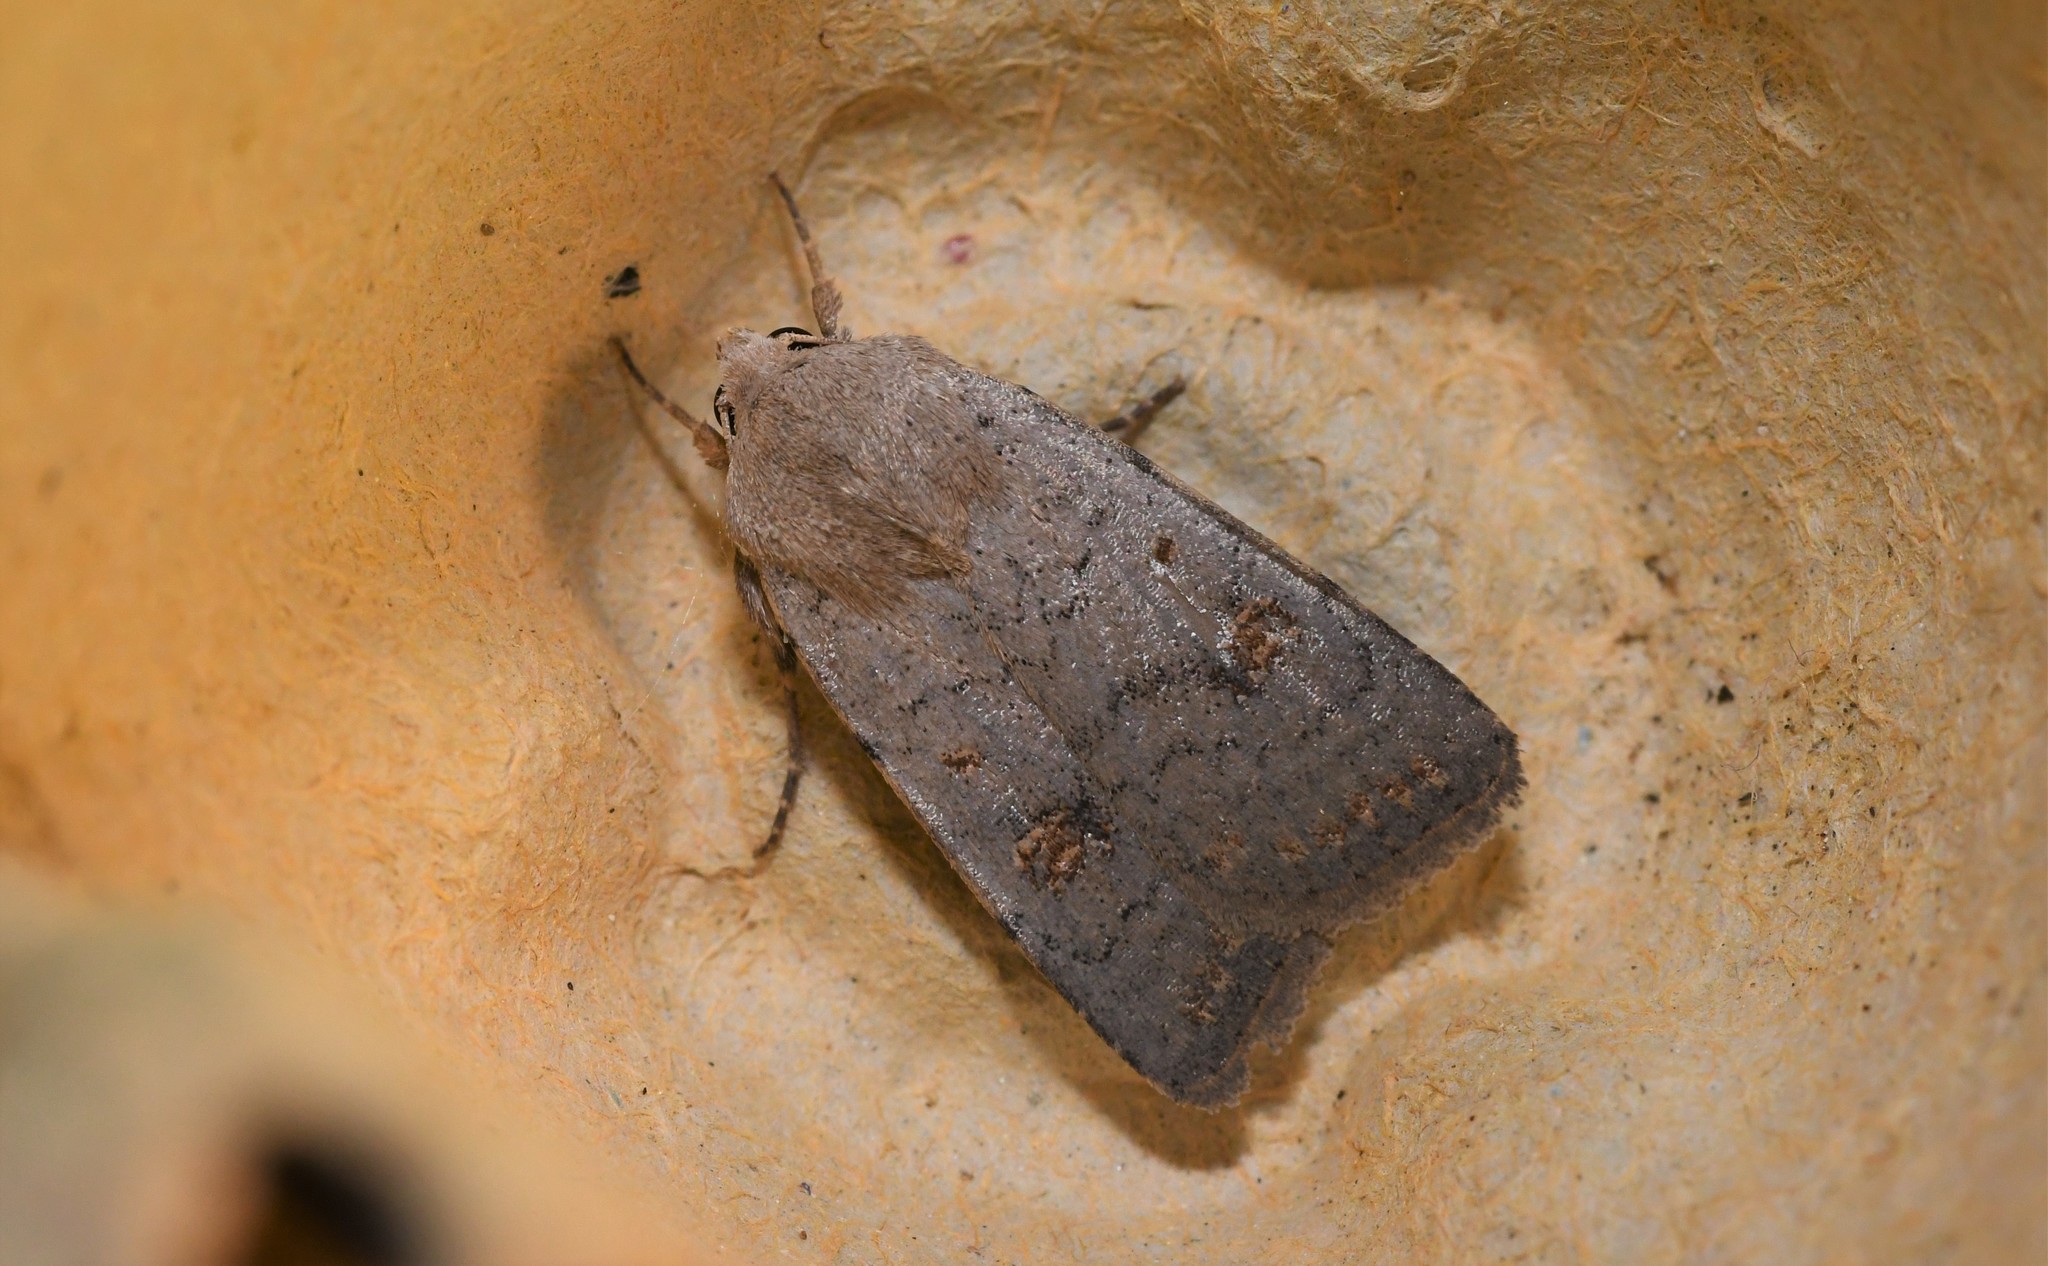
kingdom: Animalia
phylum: Arthropoda
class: Insecta
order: Lepidoptera
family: Noctuidae
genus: Caradrina
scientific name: Caradrina proxima
